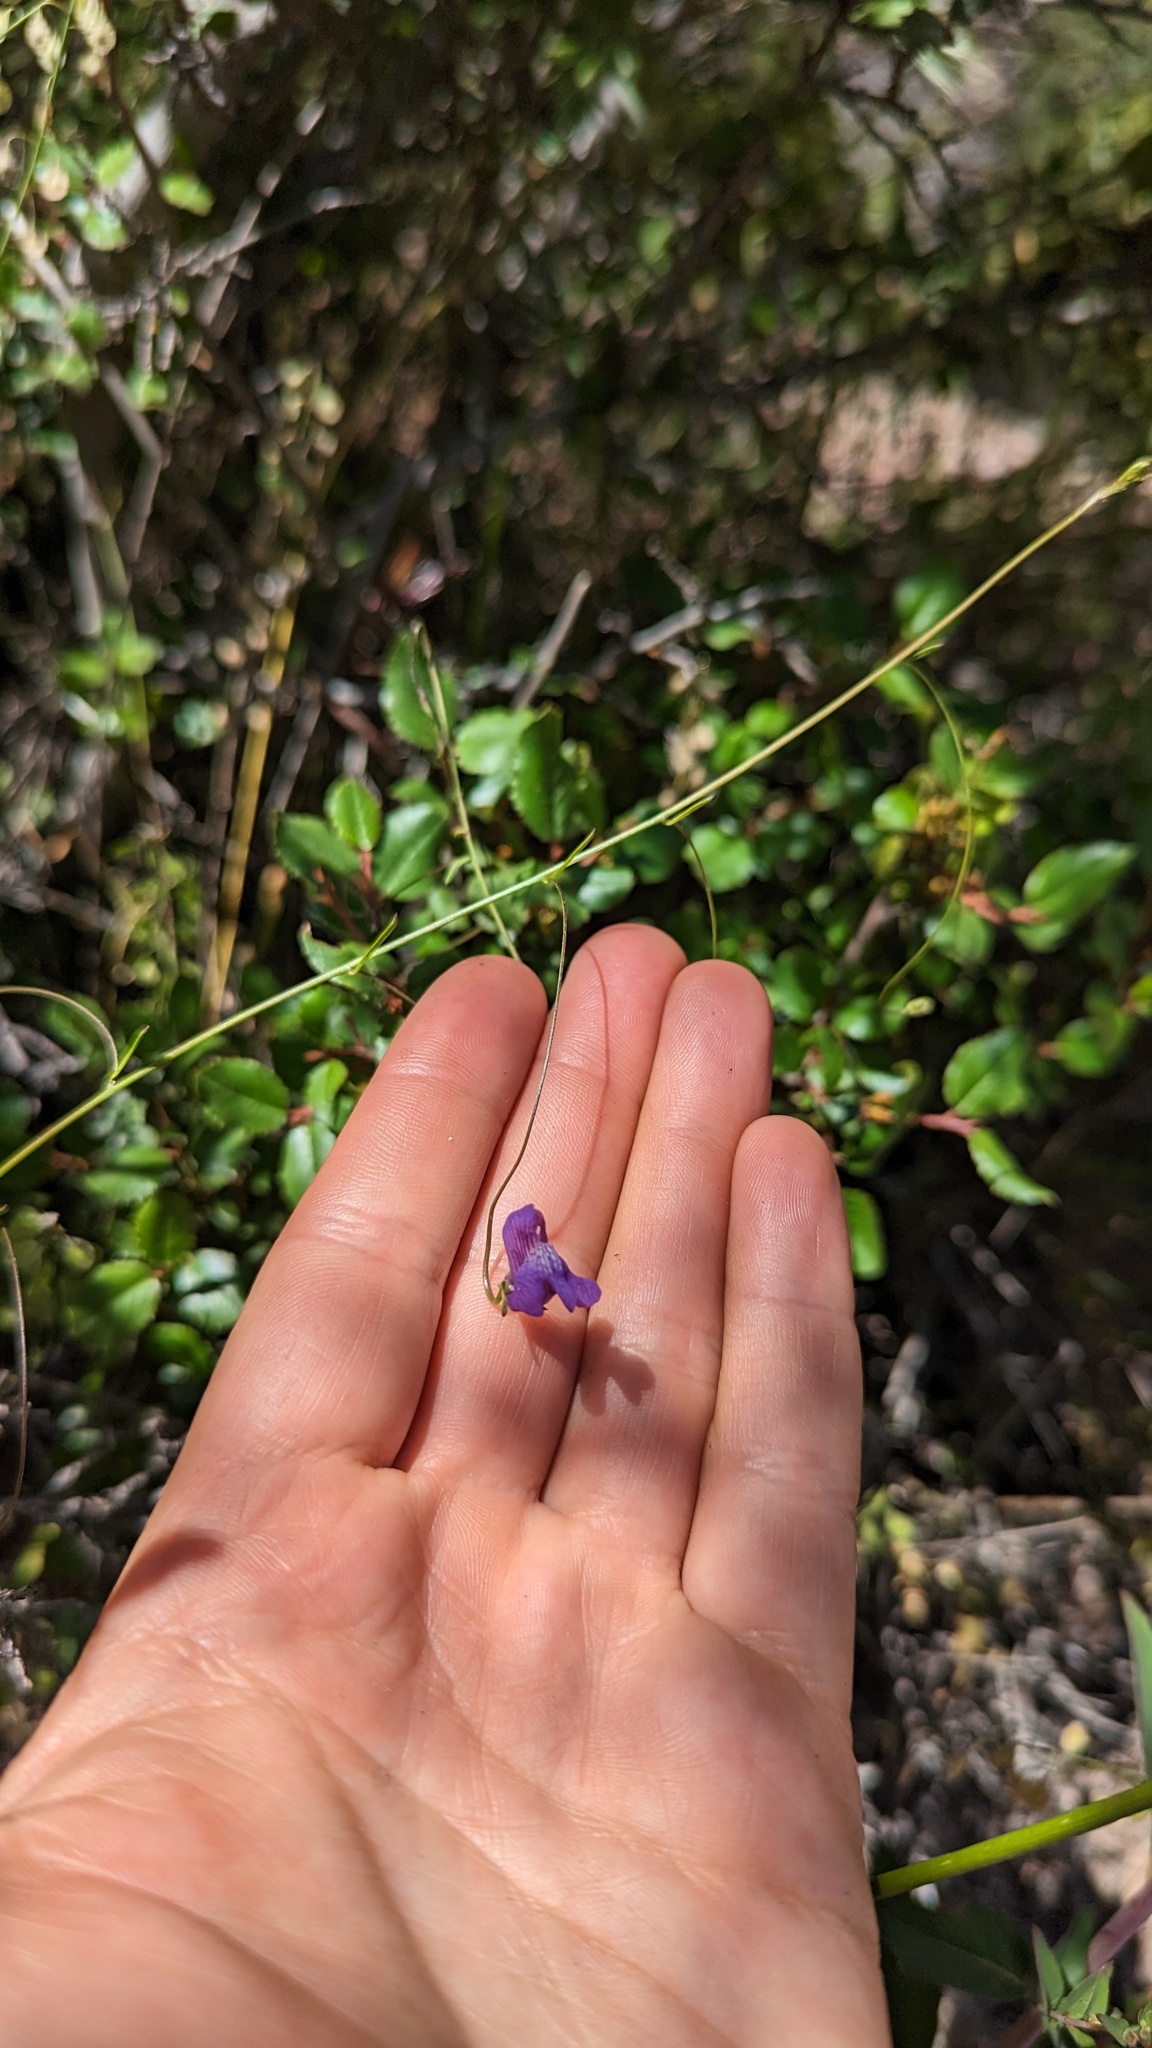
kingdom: Plantae
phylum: Tracheophyta
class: Magnoliopsida
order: Lamiales
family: Plantaginaceae
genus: Neogaerrhinum
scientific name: Neogaerrhinum strictum
